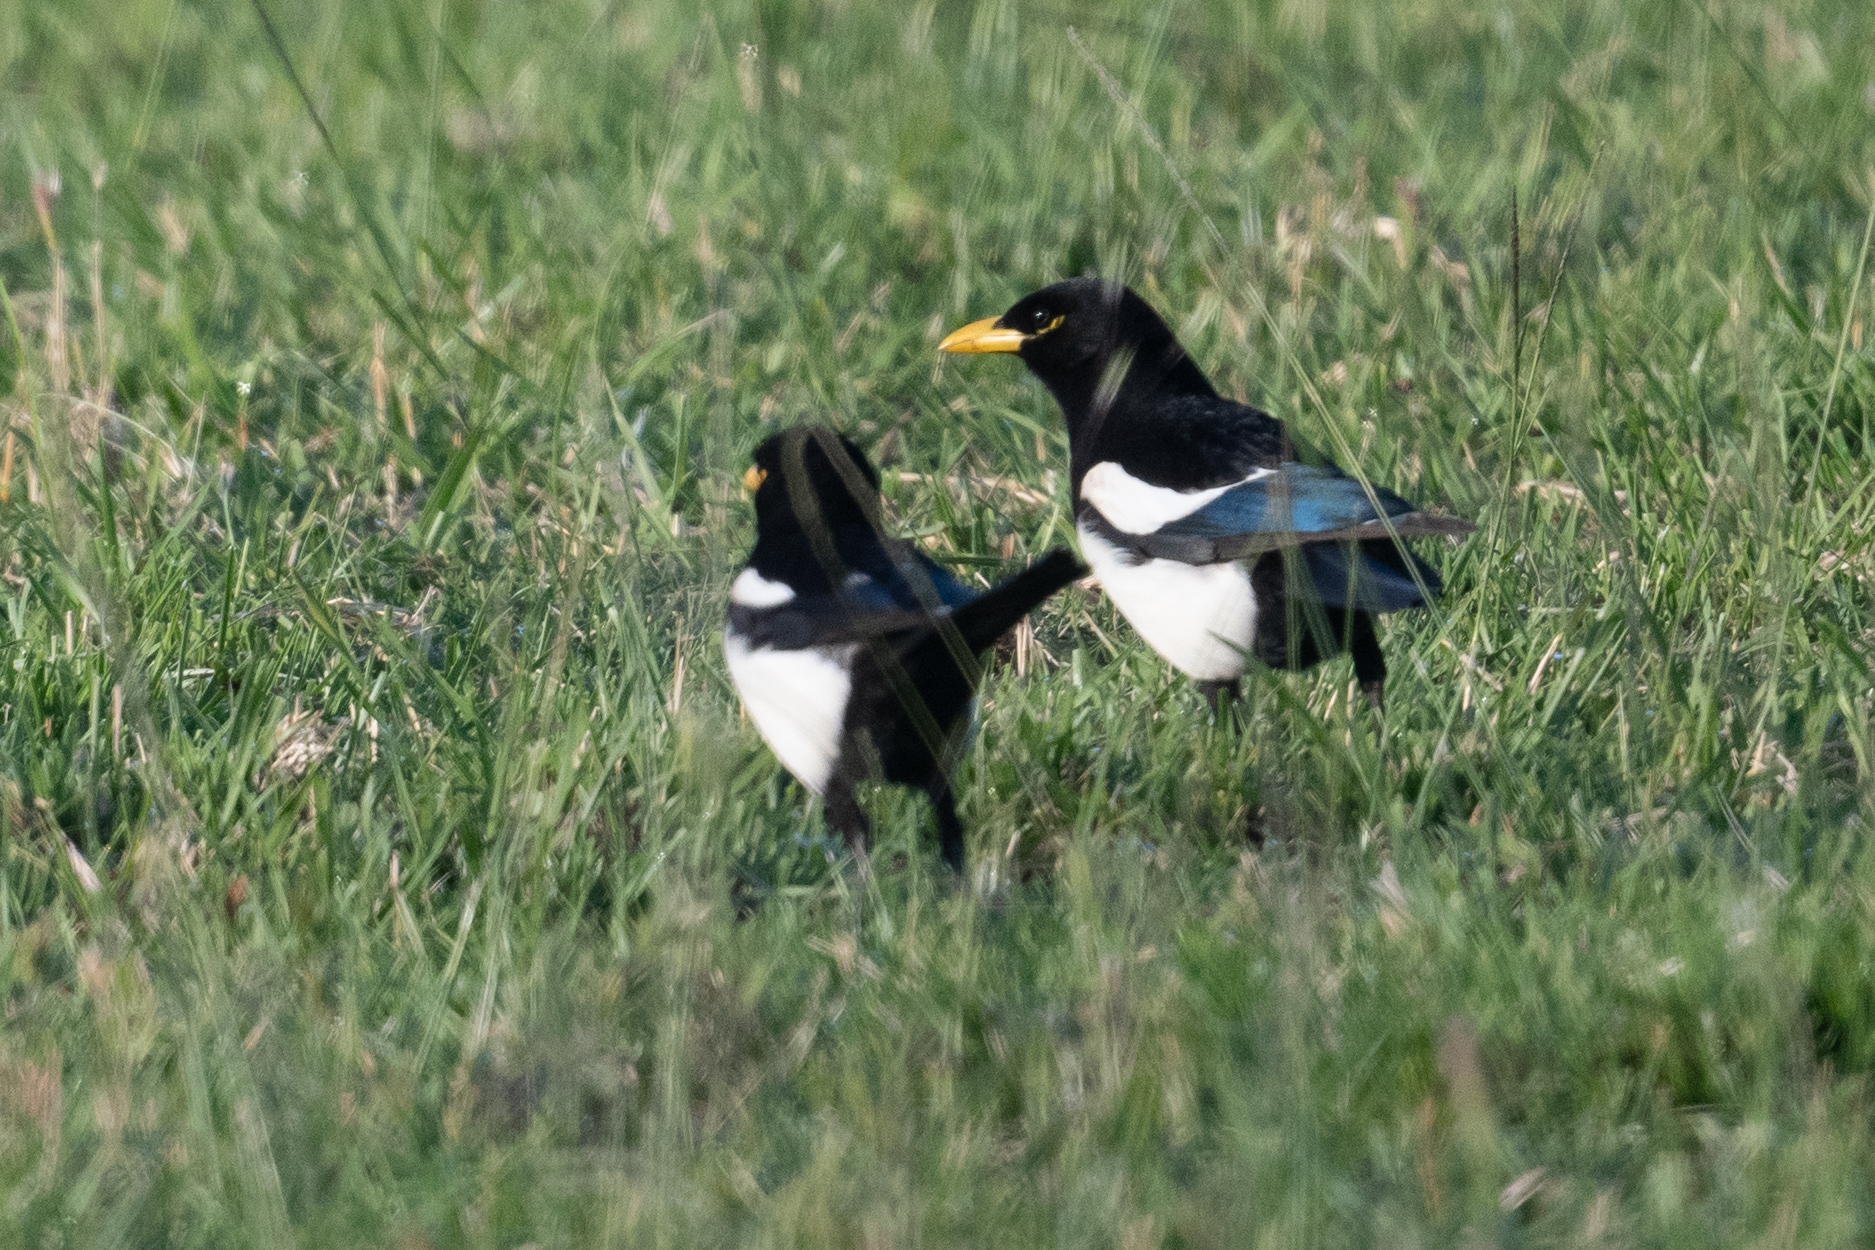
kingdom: Animalia
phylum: Chordata
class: Aves
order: Passeriformes
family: Corvidae
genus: Pica
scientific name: Pica nuttalli
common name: Yellow-billed magpie
